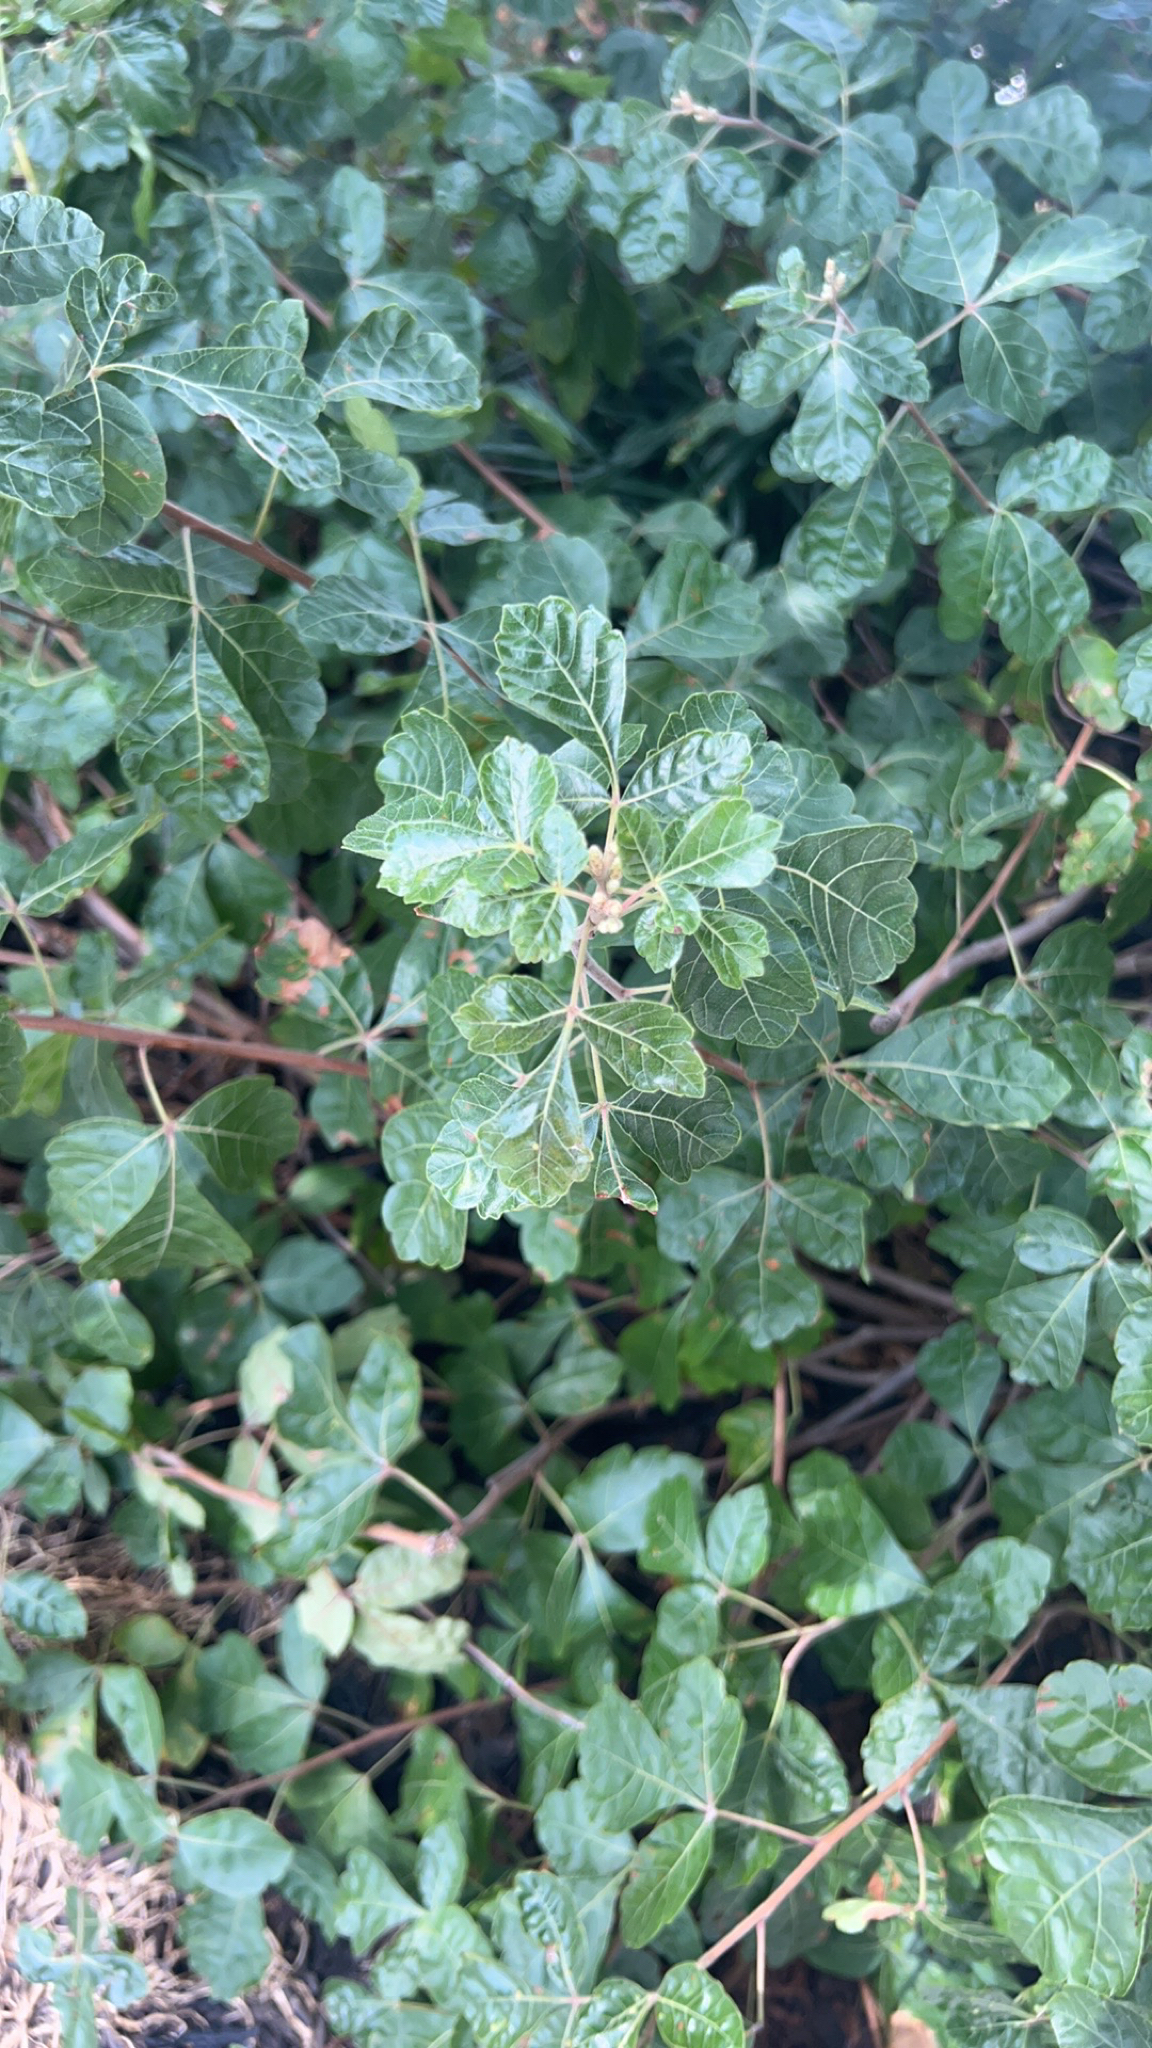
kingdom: Plantae
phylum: Tracheophyta
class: Magnoliopsida
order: Sapindales
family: Anacardiaceae
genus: Rhus
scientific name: Rhus aromatica
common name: Aromatic sumac
